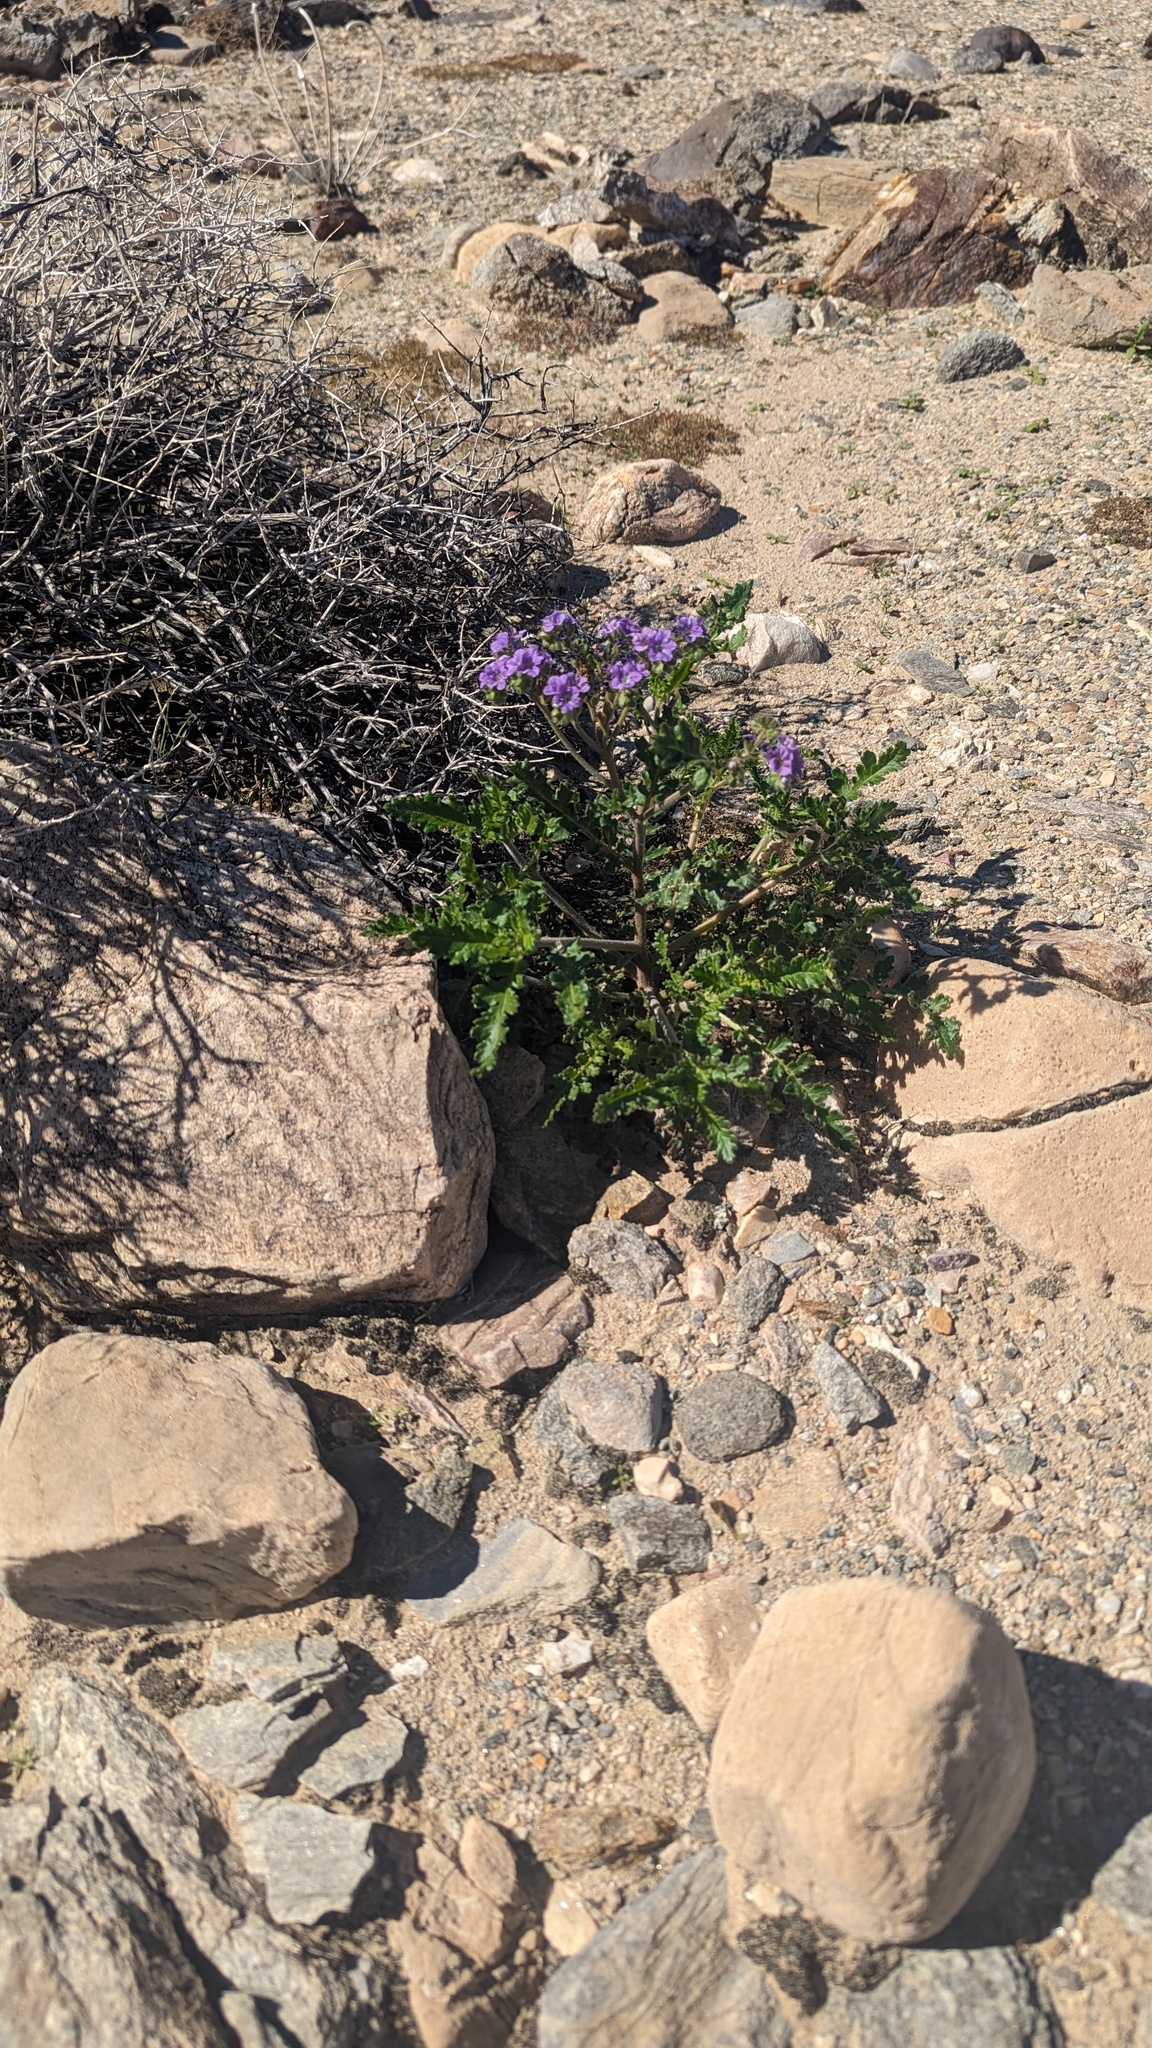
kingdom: Plantae
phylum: Tracheophyta
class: Magnoliopsida
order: Boraginales
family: Hydrophyllaceae
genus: Phacelia
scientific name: Phacelia crenulata
